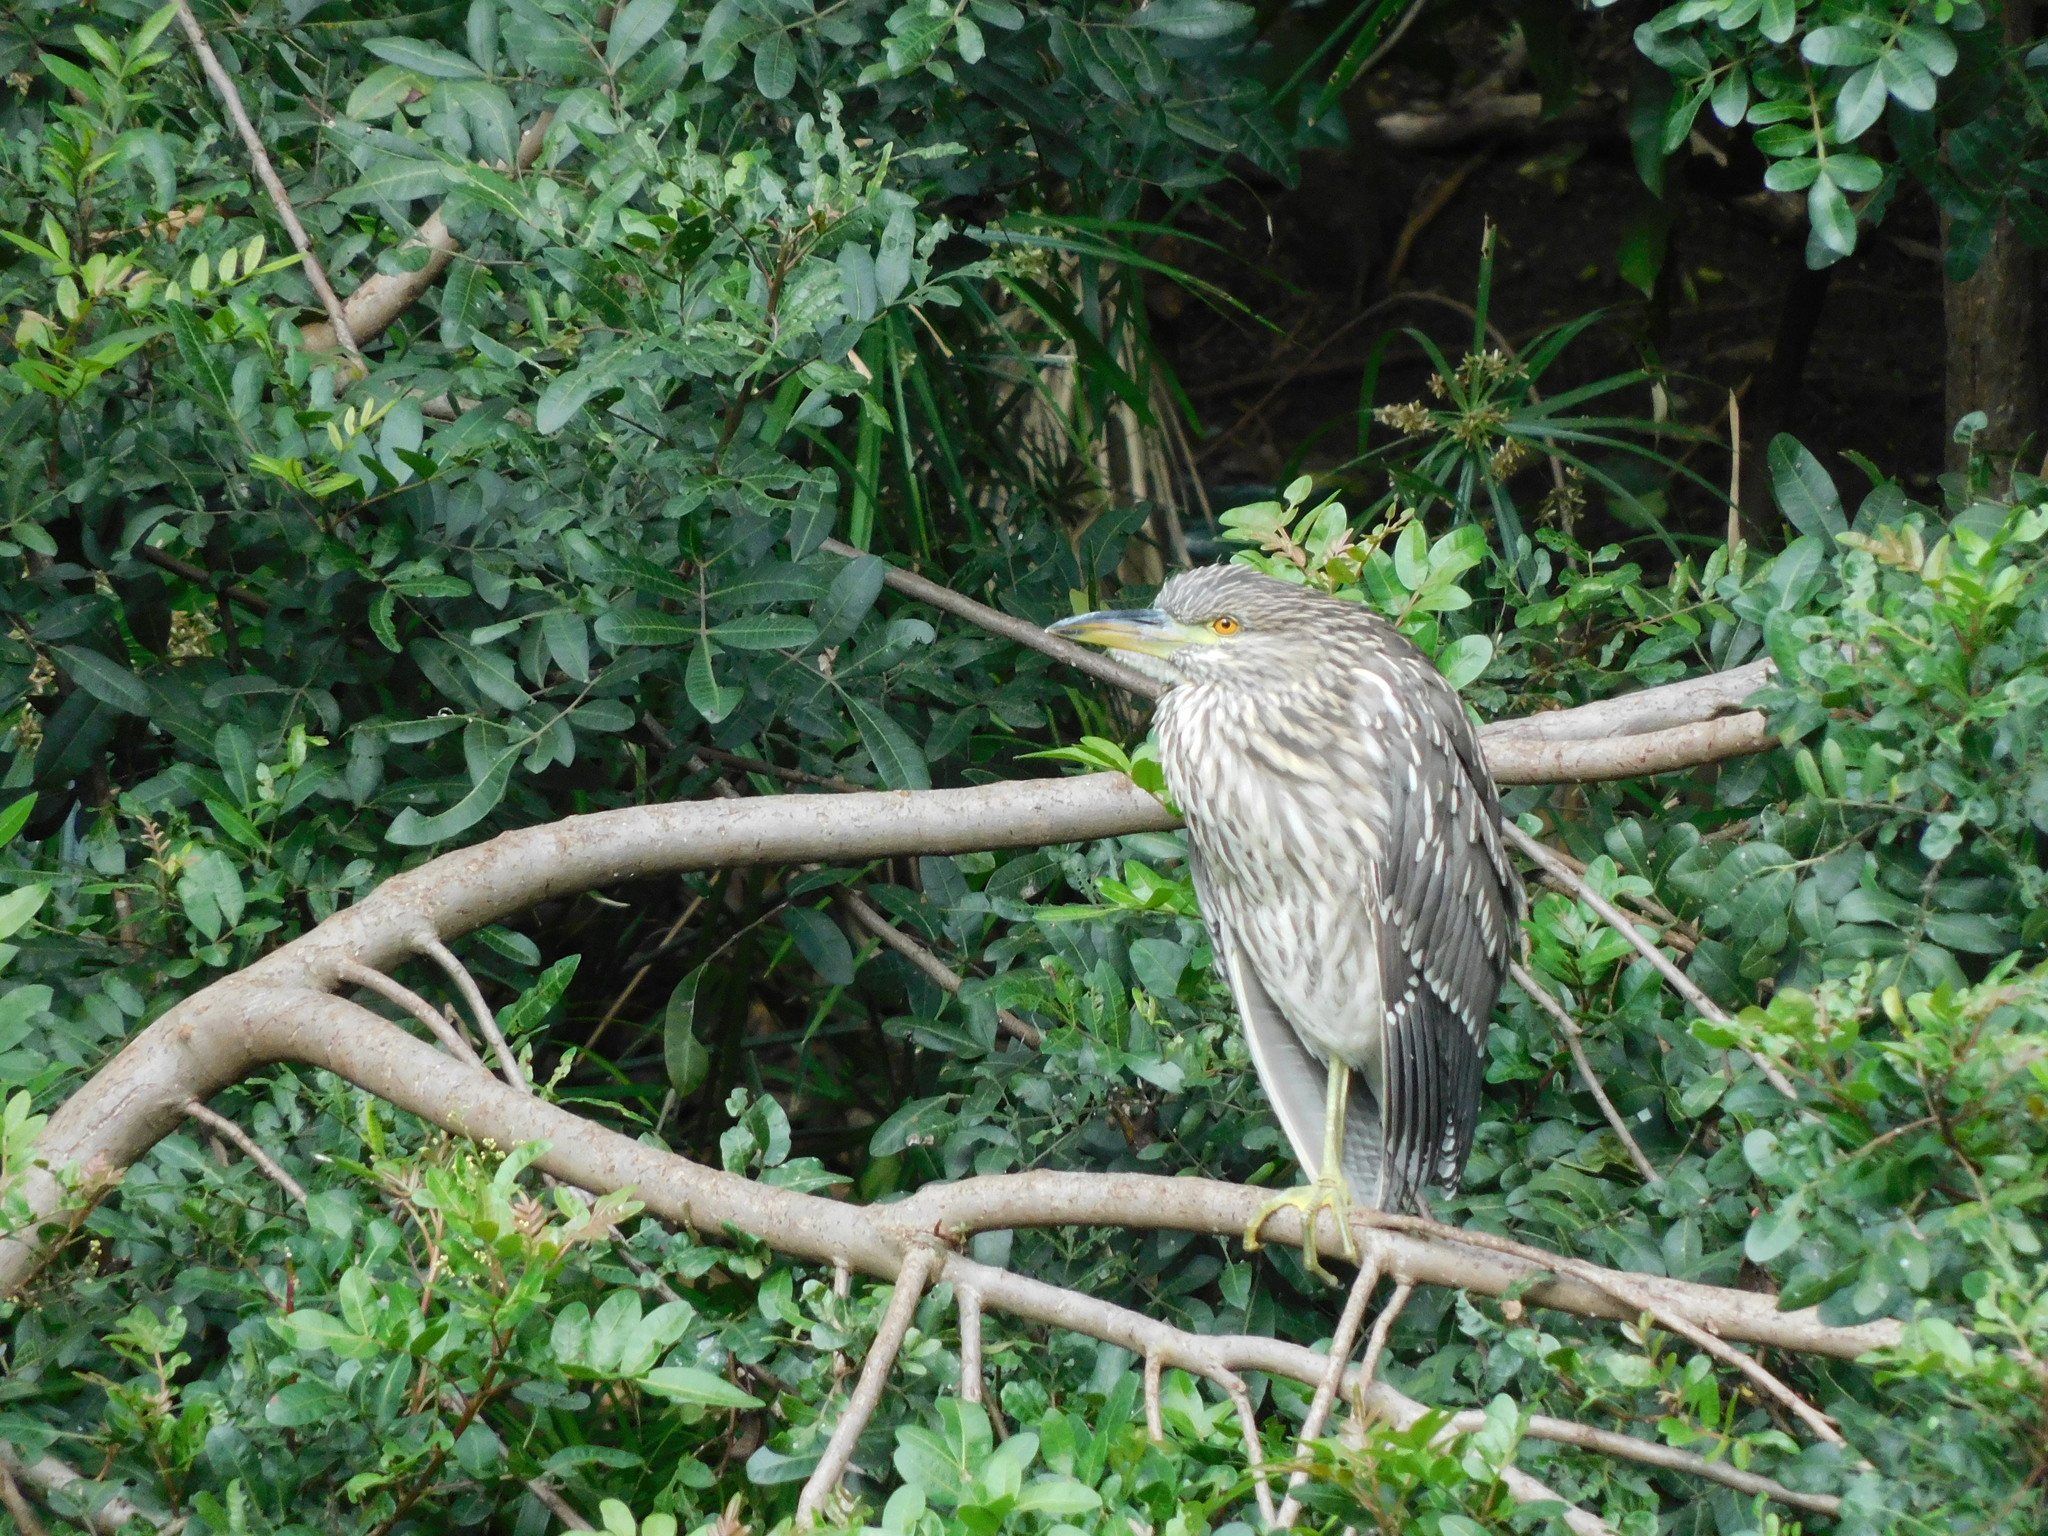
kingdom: Animalia
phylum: Chordata
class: Aves
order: Pelecaniformes
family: Ardeidae
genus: Nycticorax
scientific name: Nycticorax nycticorax
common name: Black-crowned night heron
